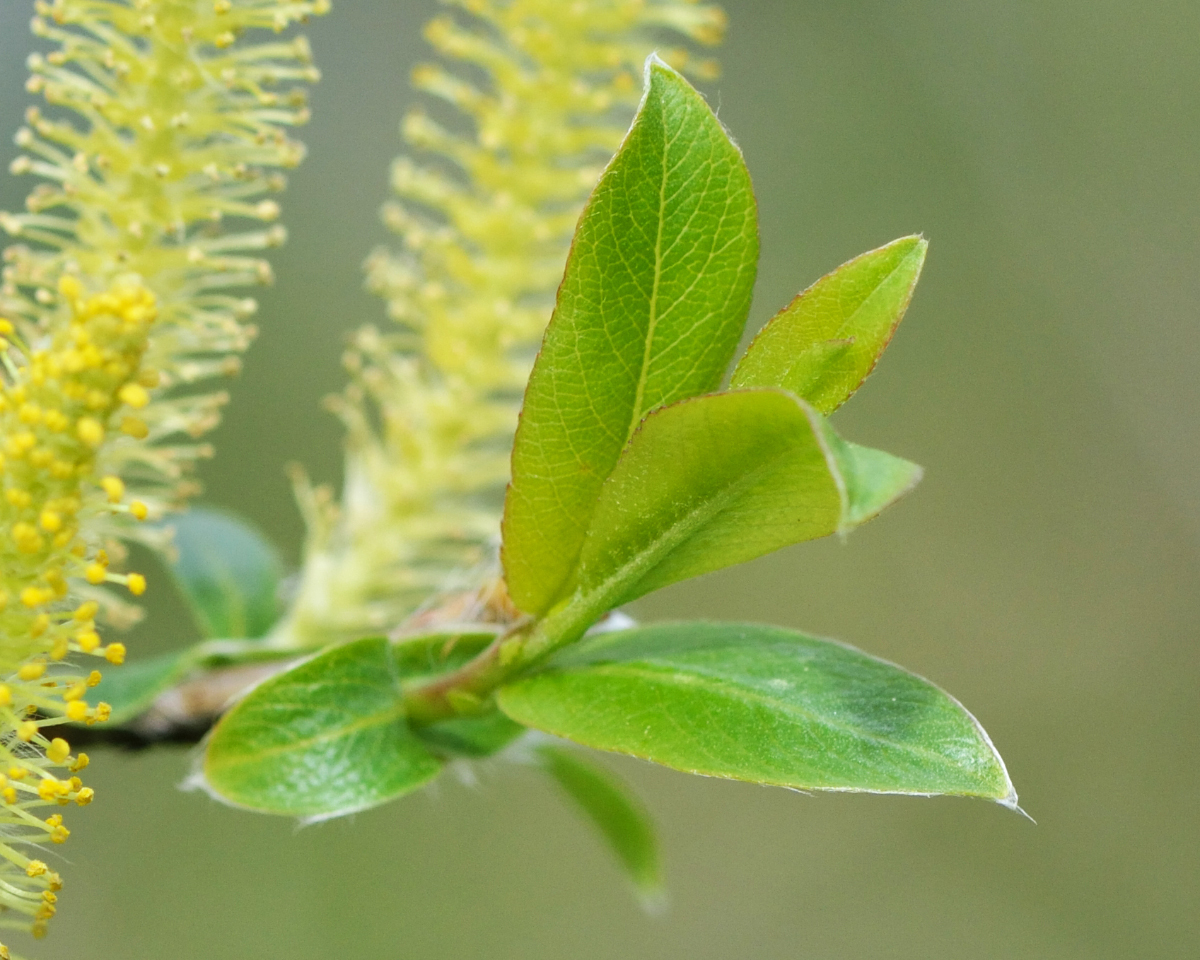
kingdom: Plantae
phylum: Tracheophyta
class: Magnoliopsida
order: Malpighiales
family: Salicaceae
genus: Salix
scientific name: Salix triandra
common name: Almond willow
